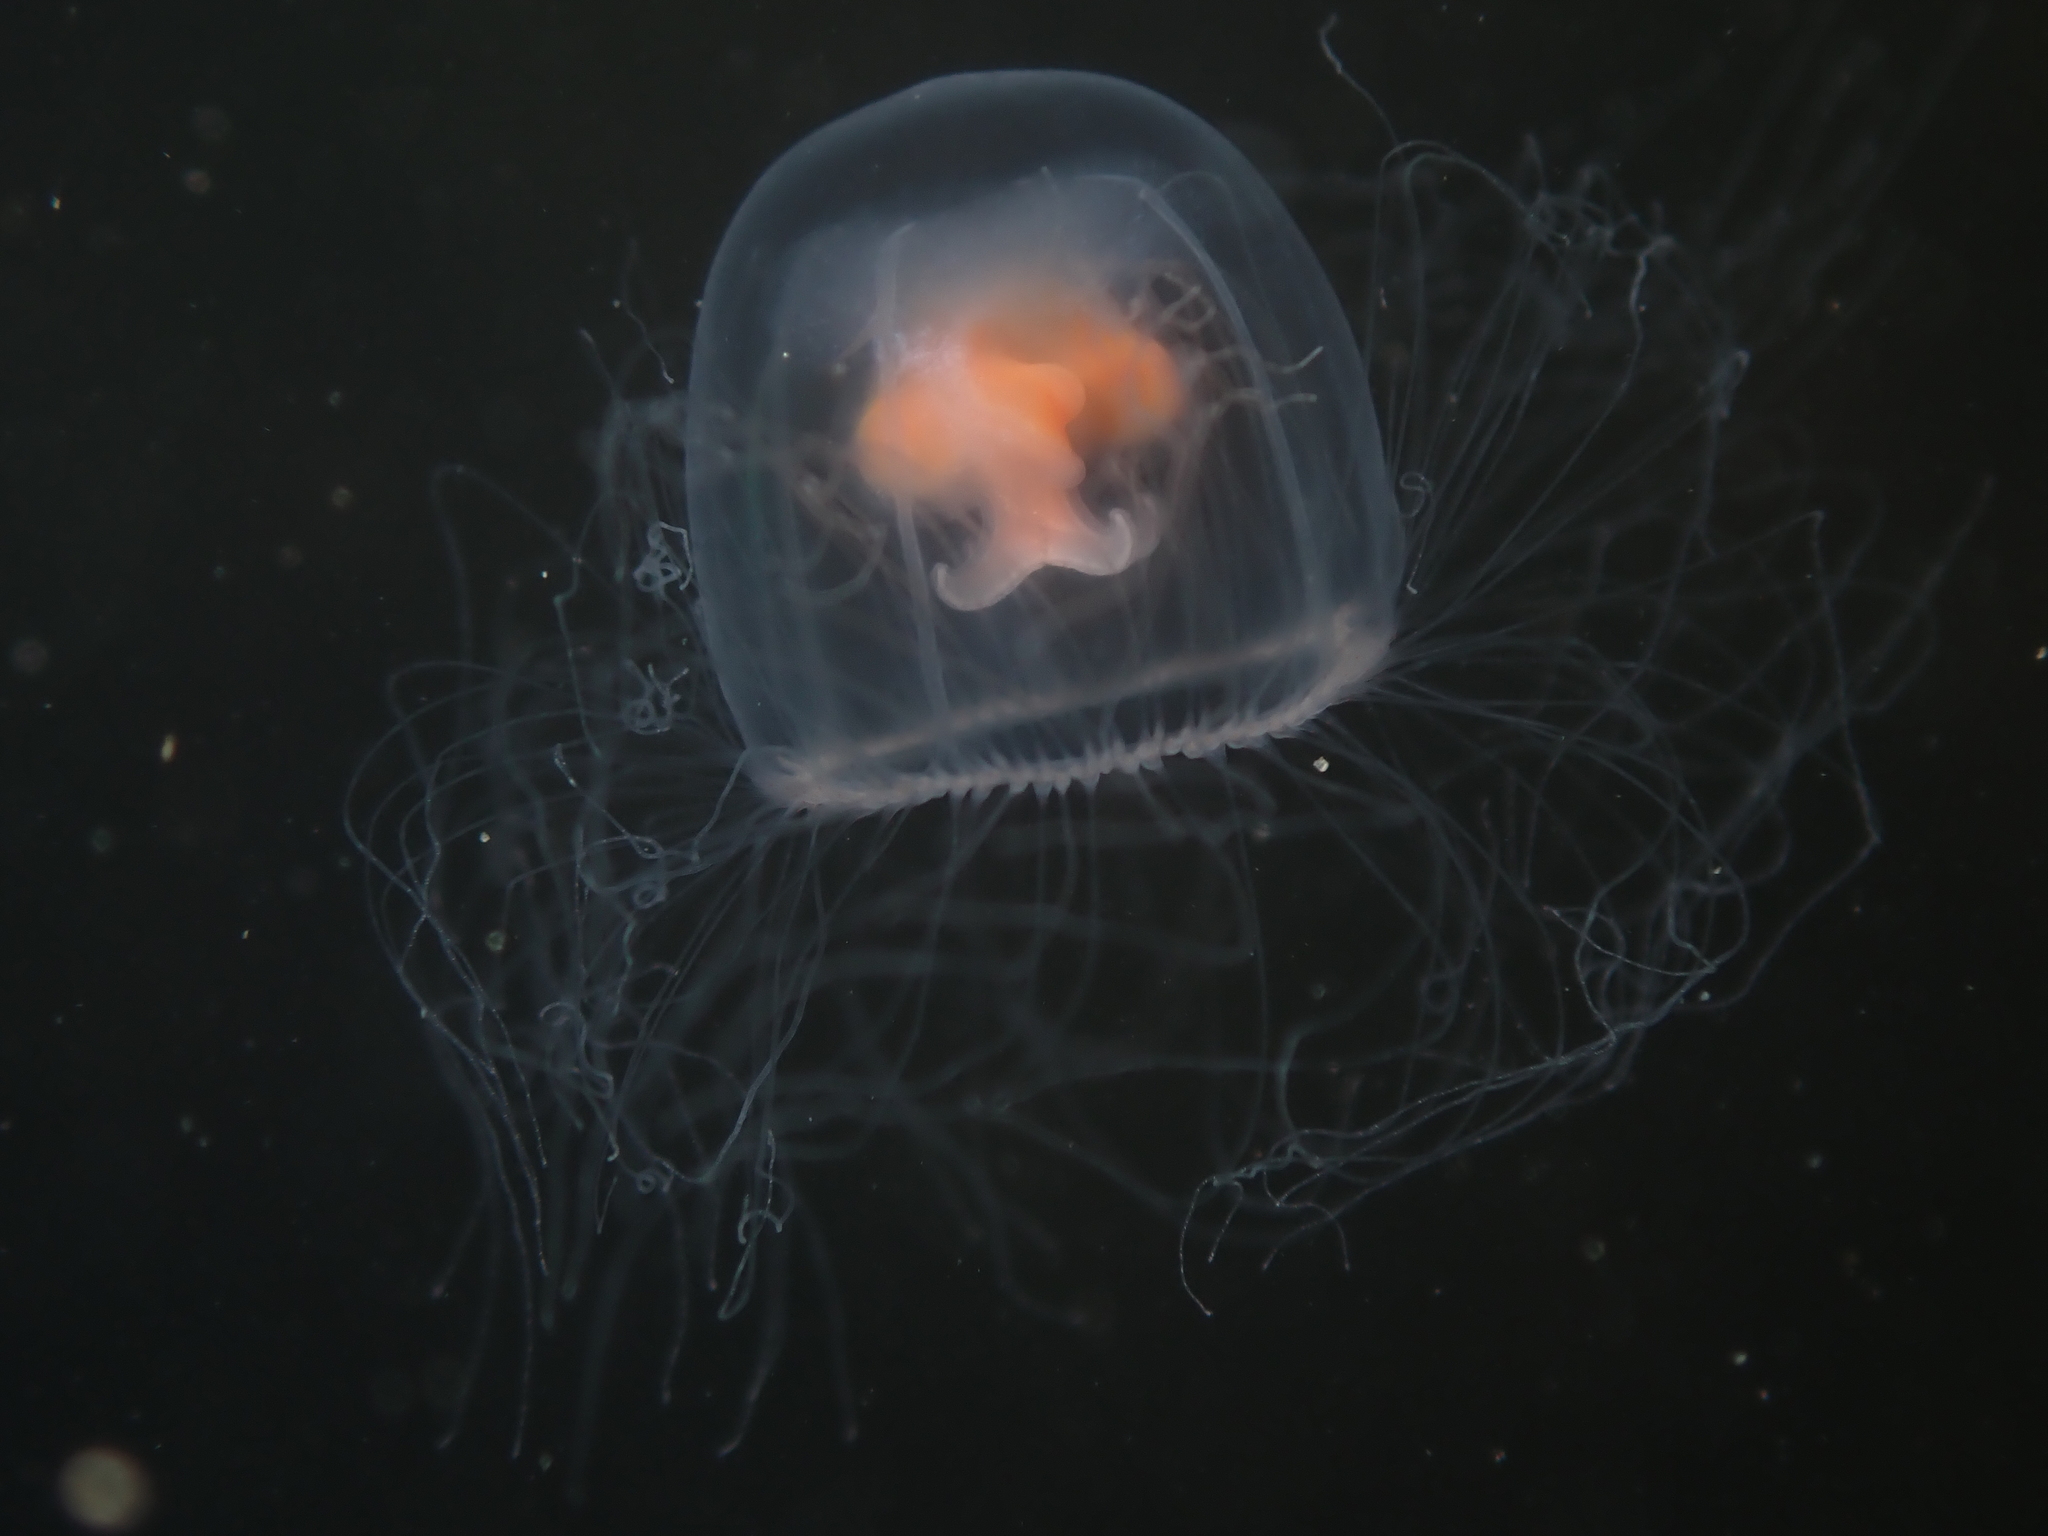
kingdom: Animalia
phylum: Cnidaria
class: Hydrozoa
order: Anthoathecata
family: Oceaniidae
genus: Turritopsis
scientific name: Turritopsis rubra
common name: Crimson jelly
